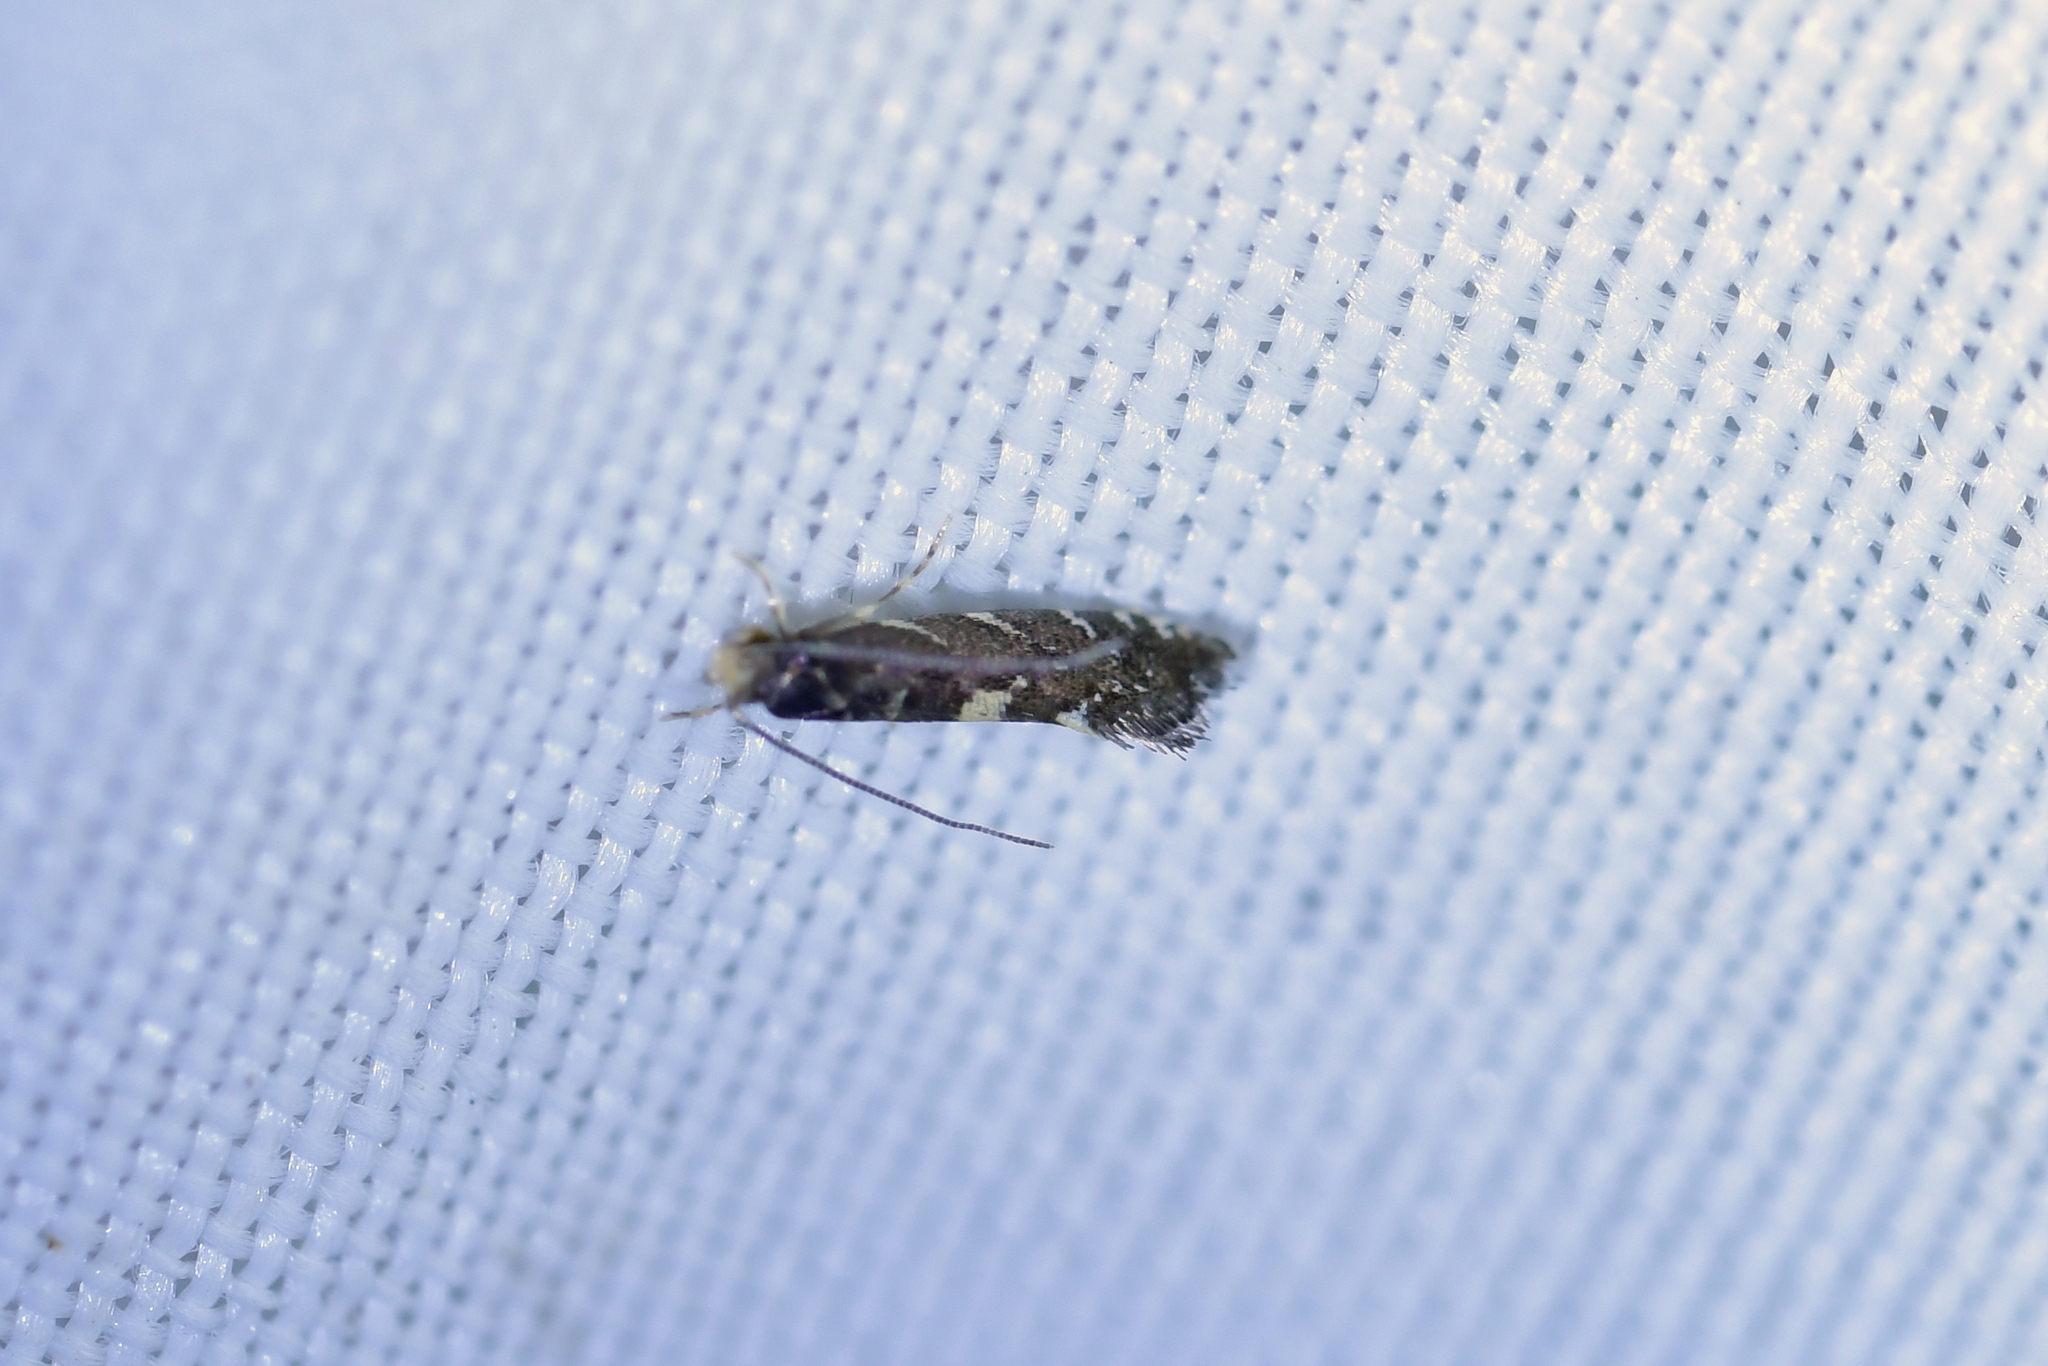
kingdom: Animalia
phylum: Arthropoda
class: Insecta
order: Lepidoptera
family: Tineidae
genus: Tinea
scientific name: Tinea margaritis
